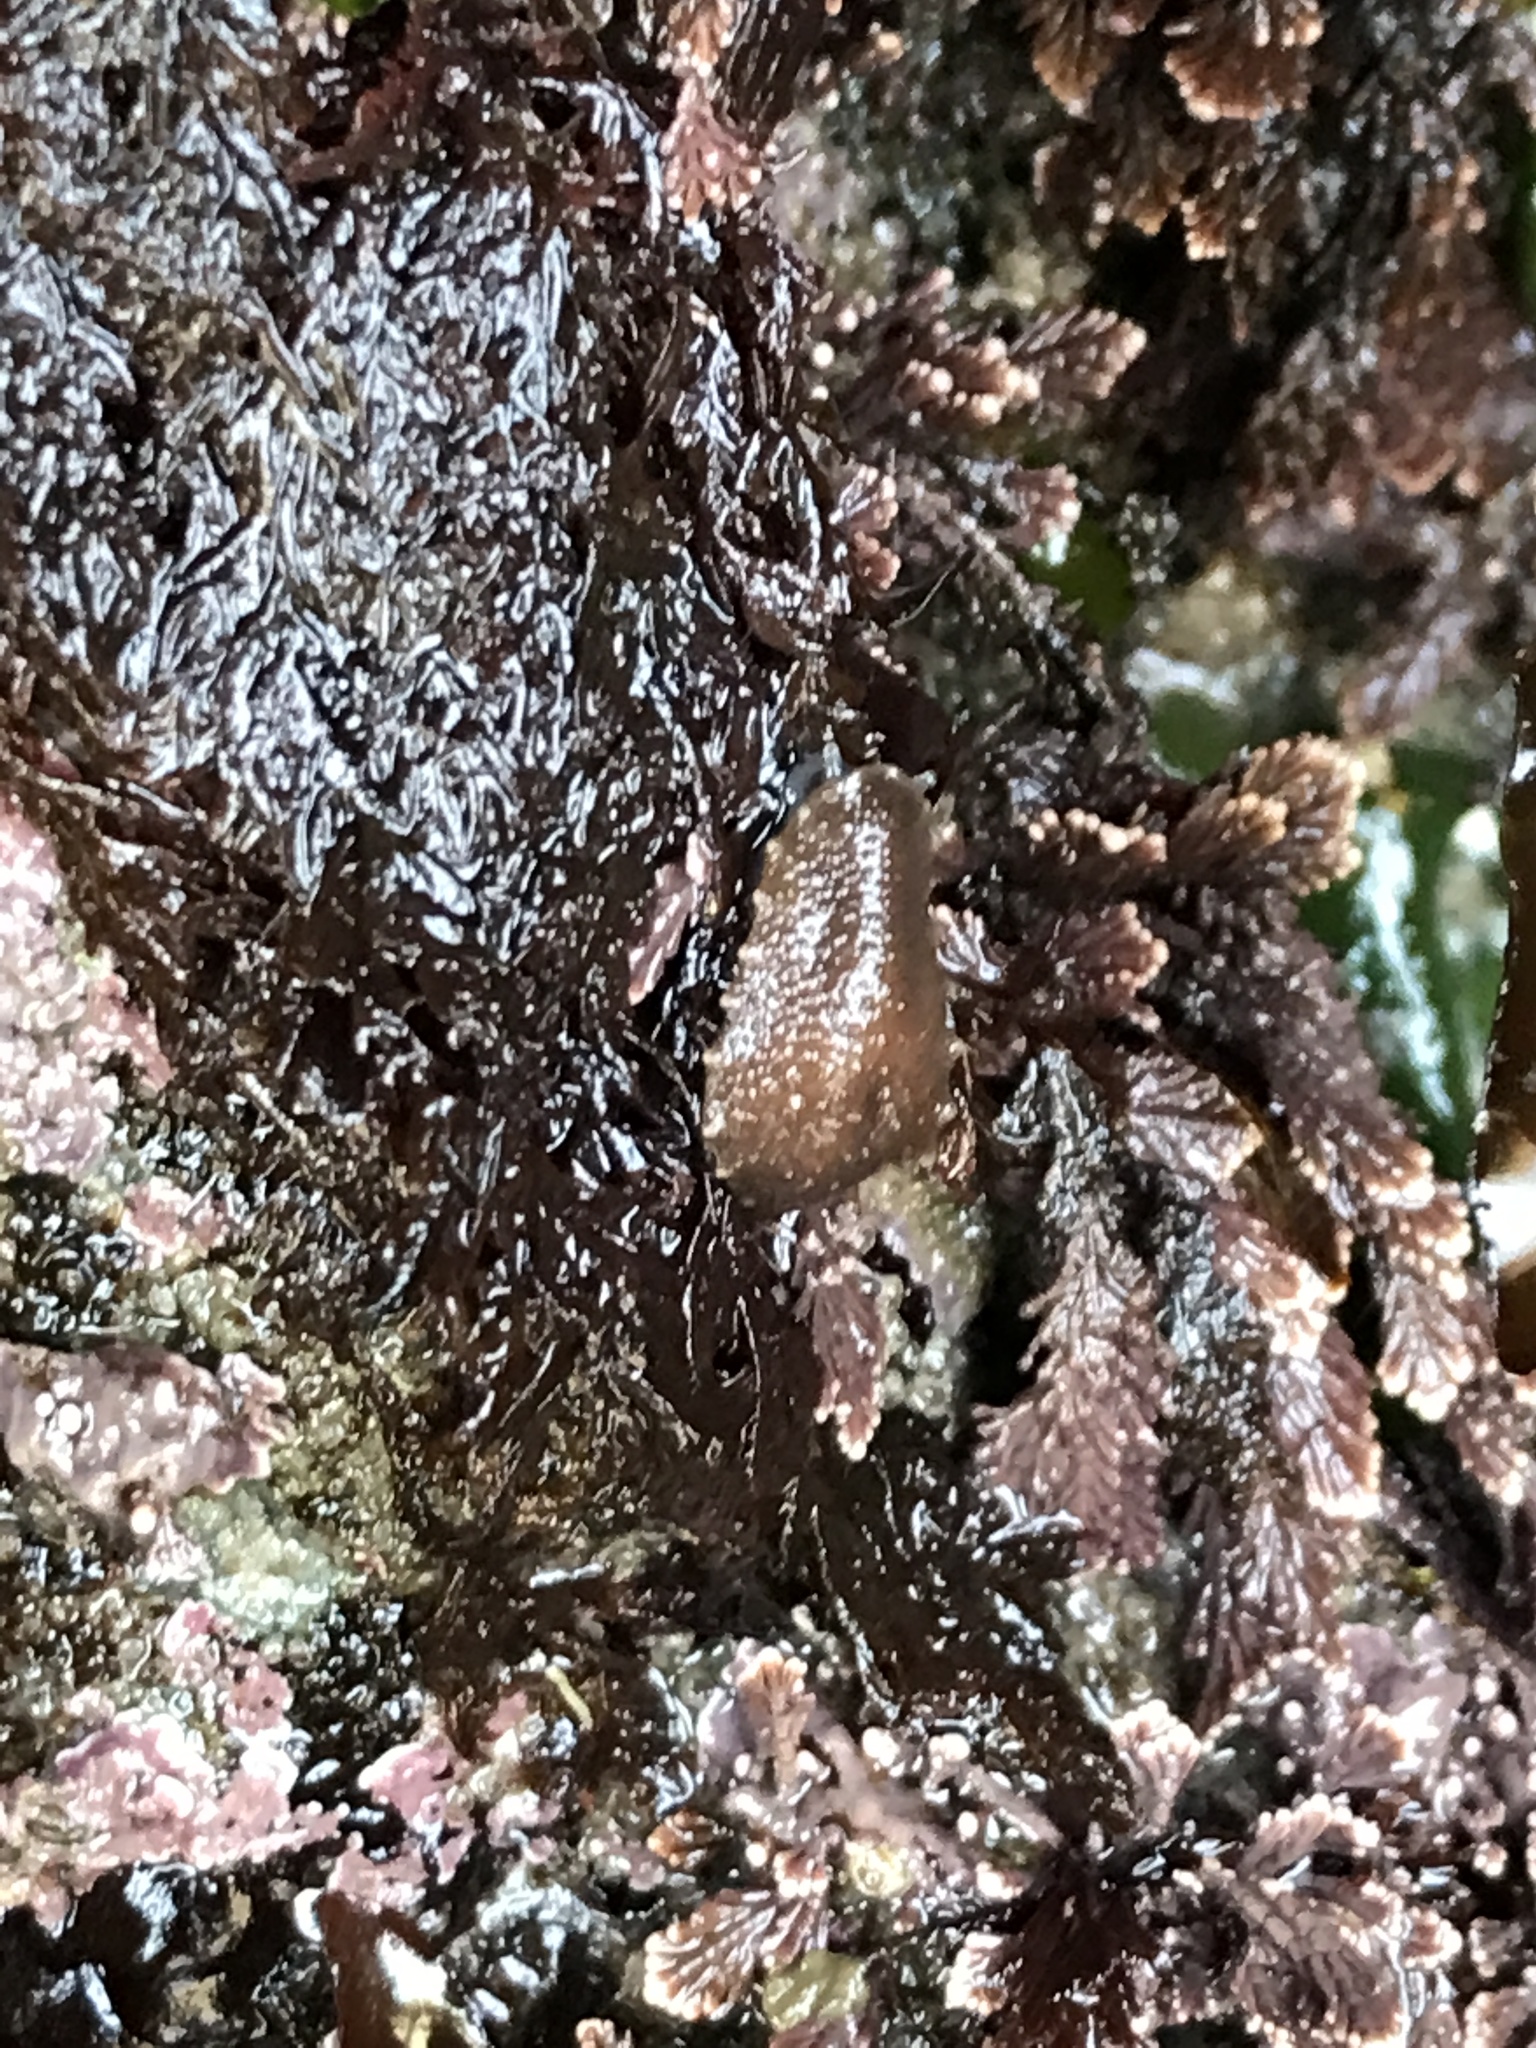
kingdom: Animalia
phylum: Mollusca
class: Gastropoda
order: Systellommatophora
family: Onchidiidae
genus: Onchidella
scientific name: Onchidella carpenteri
